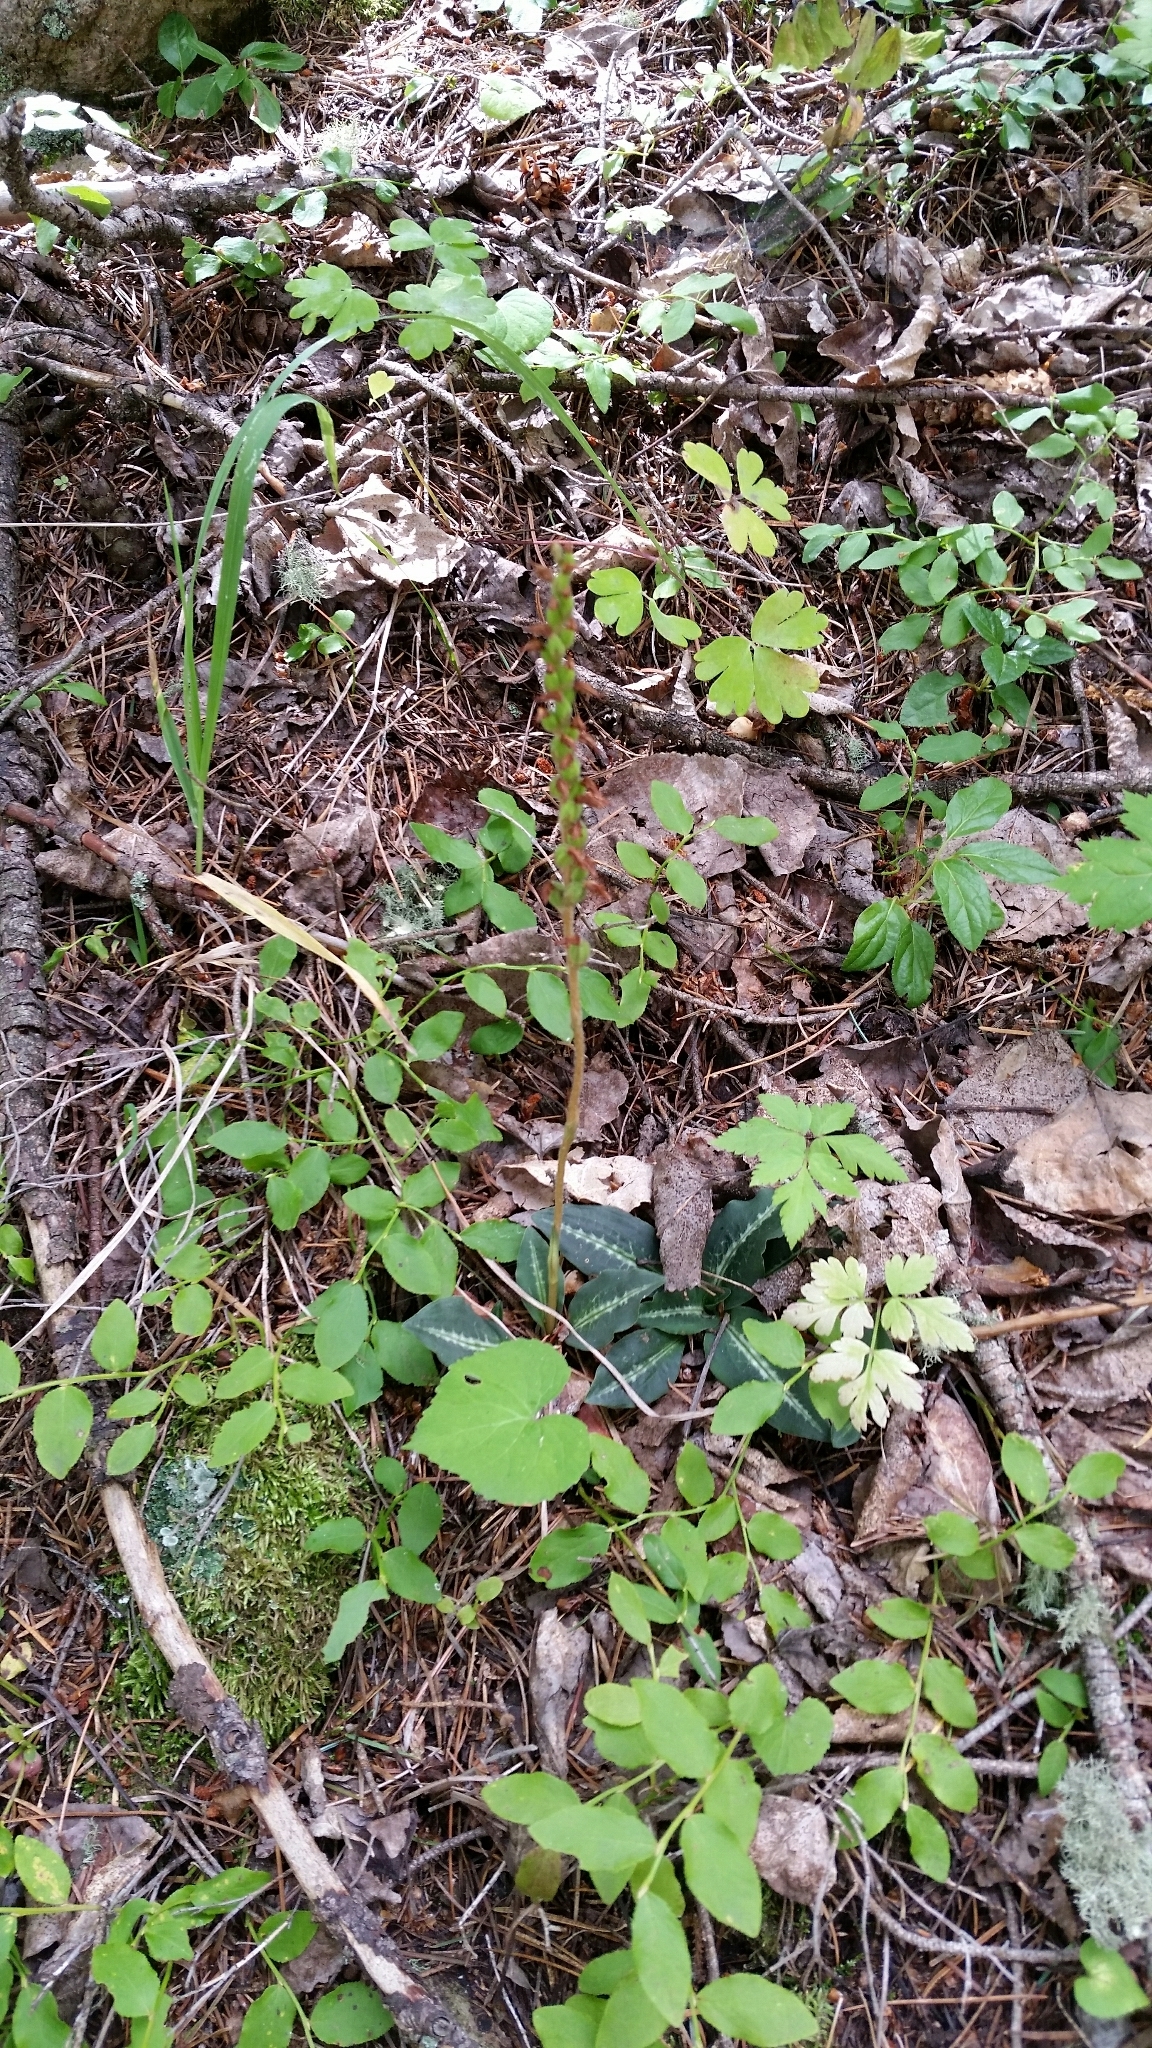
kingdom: Plantae
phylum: Tracheophyta
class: Liliopsida
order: Asparagales
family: Orchidaceae
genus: Goodyera
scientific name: Goodyera oblongifolia
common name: Giant rattlesnake-plantain
